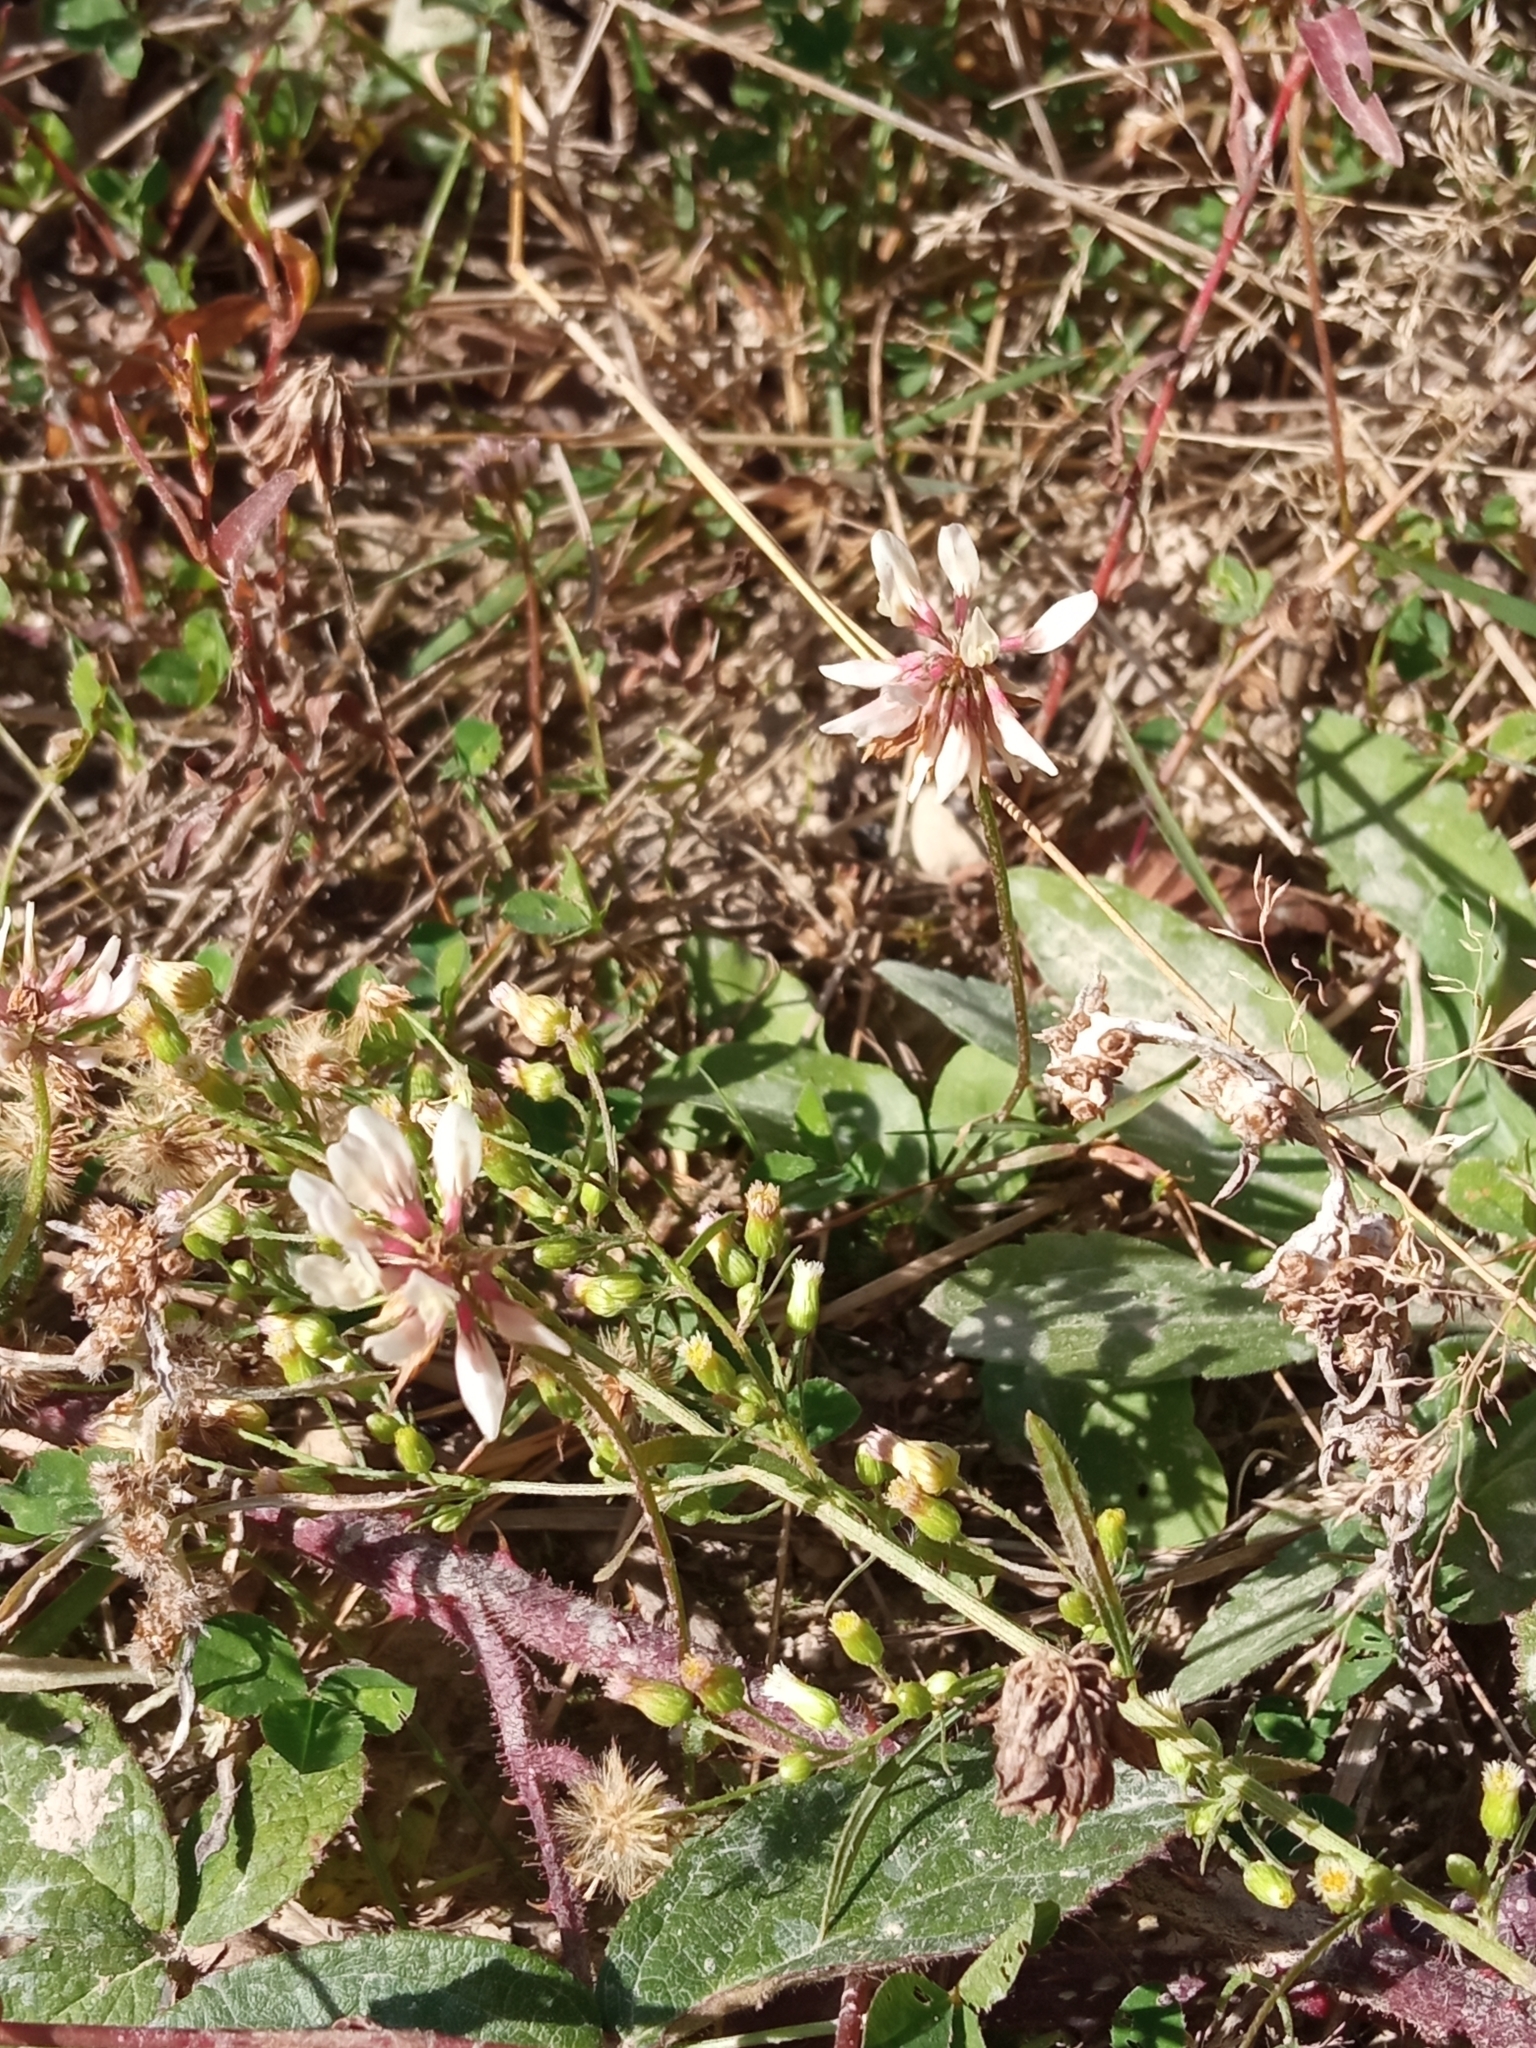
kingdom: Plantae
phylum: Tracheophyta
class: Magnoliopsida
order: Fabales
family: Fabaceae
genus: Trifolium
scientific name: Trifolium repens
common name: White clover
